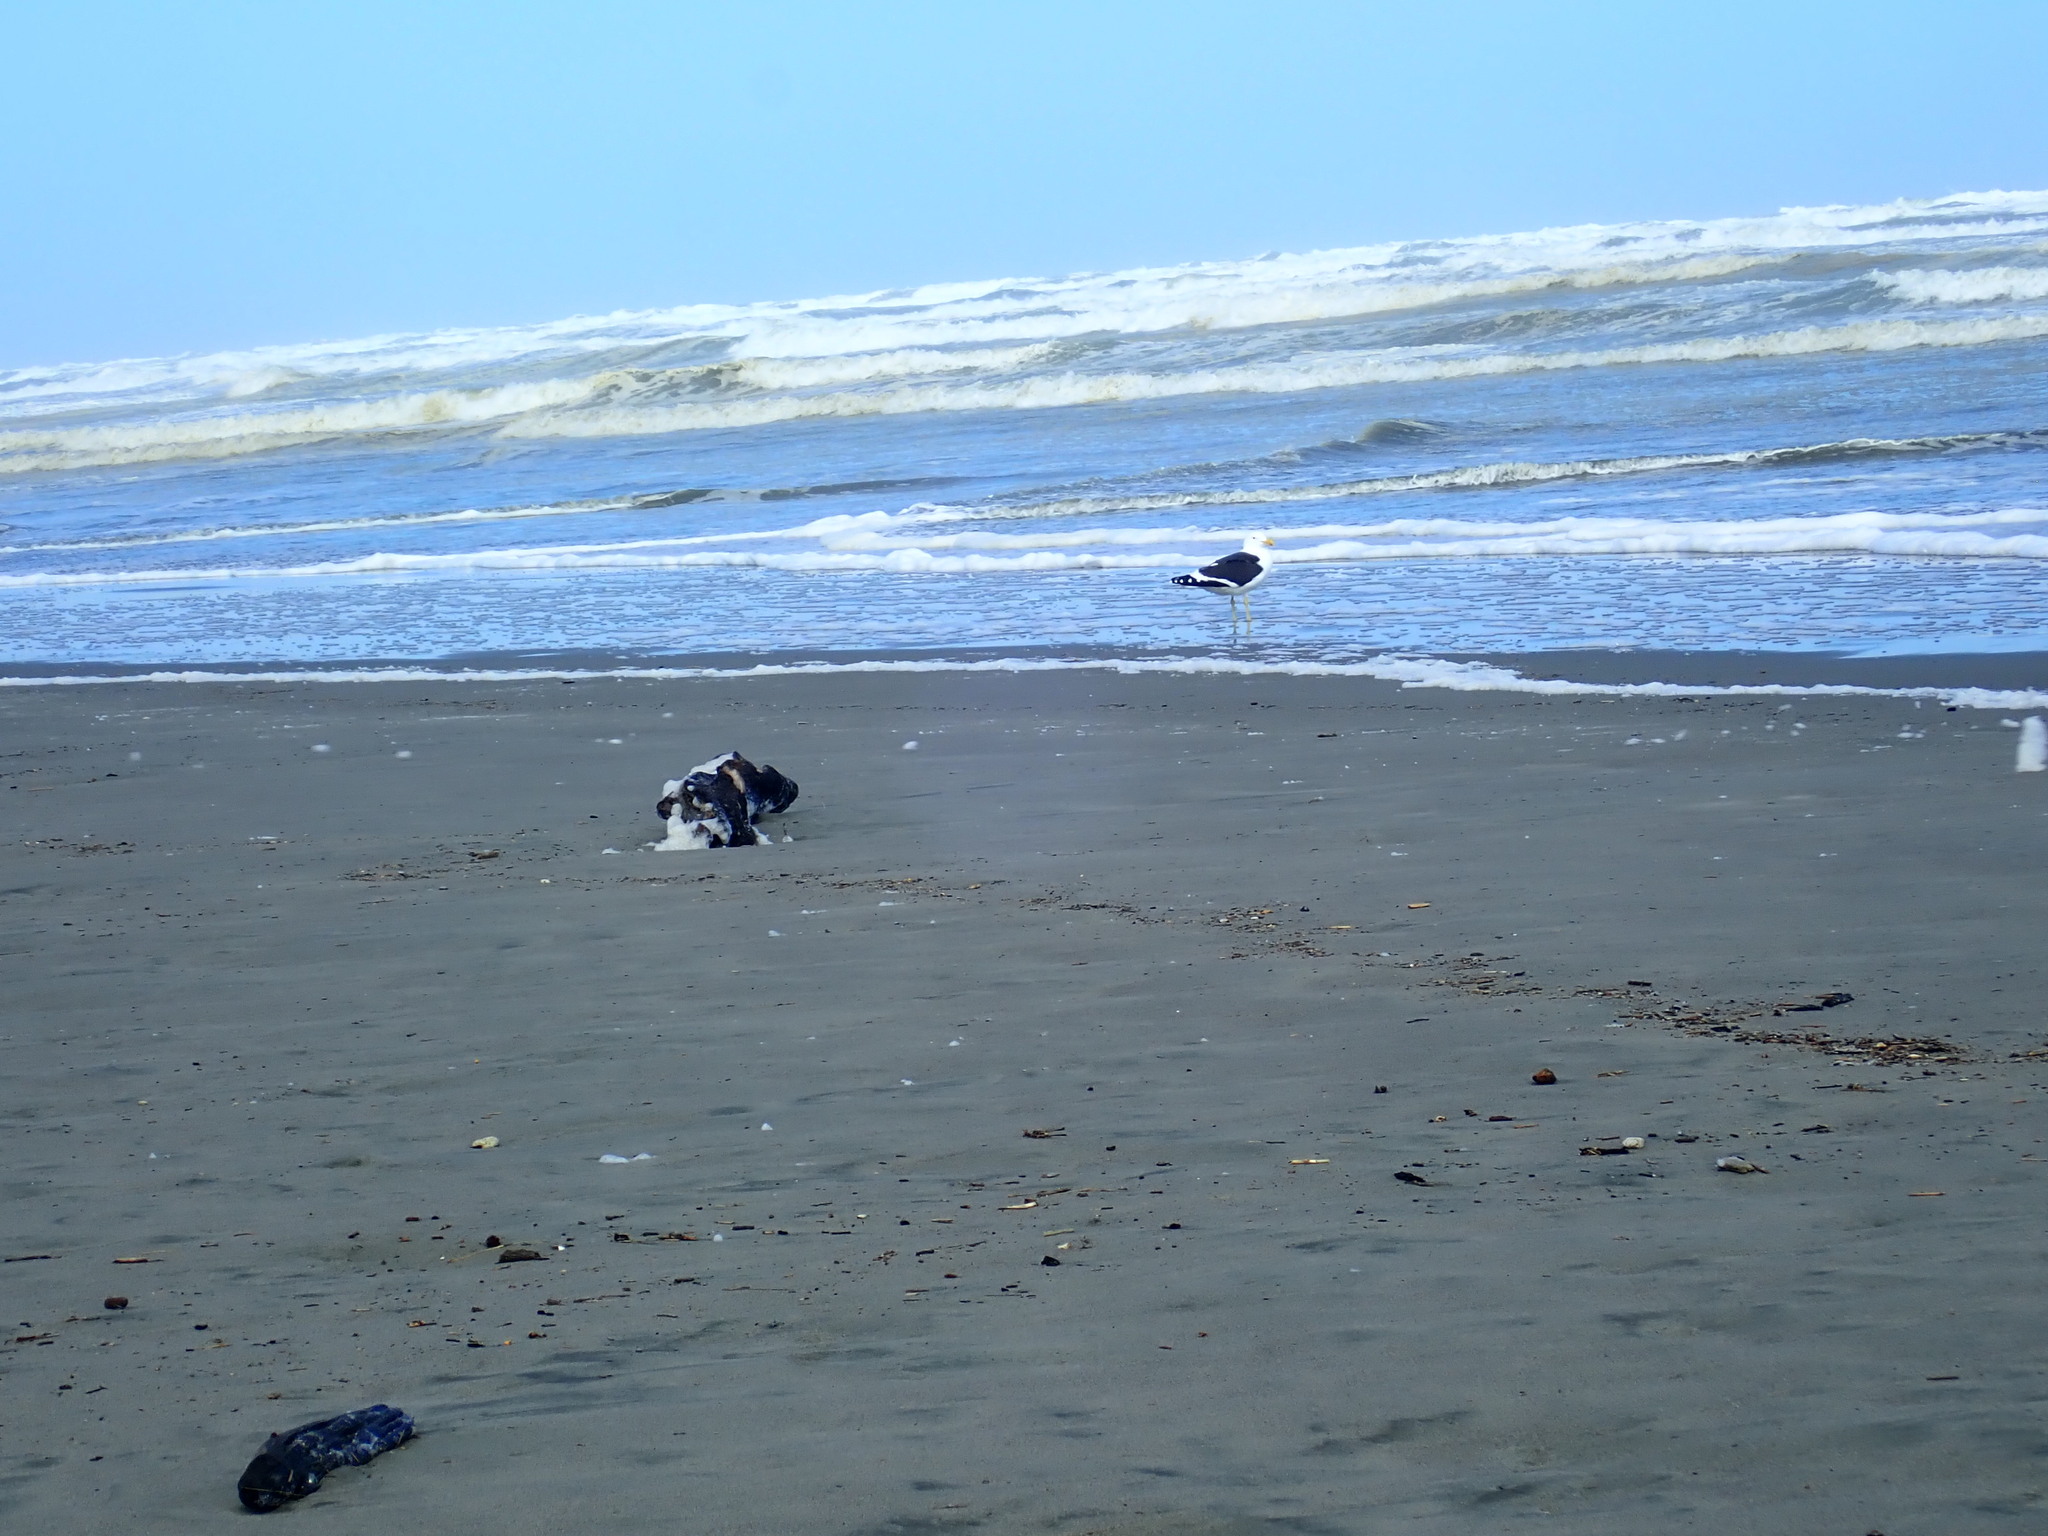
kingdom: Animalia
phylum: Chordata
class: Aves
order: Charadriiformes
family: Laridae
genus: Larus
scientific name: Larus dominicanus
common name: Kelp gull
